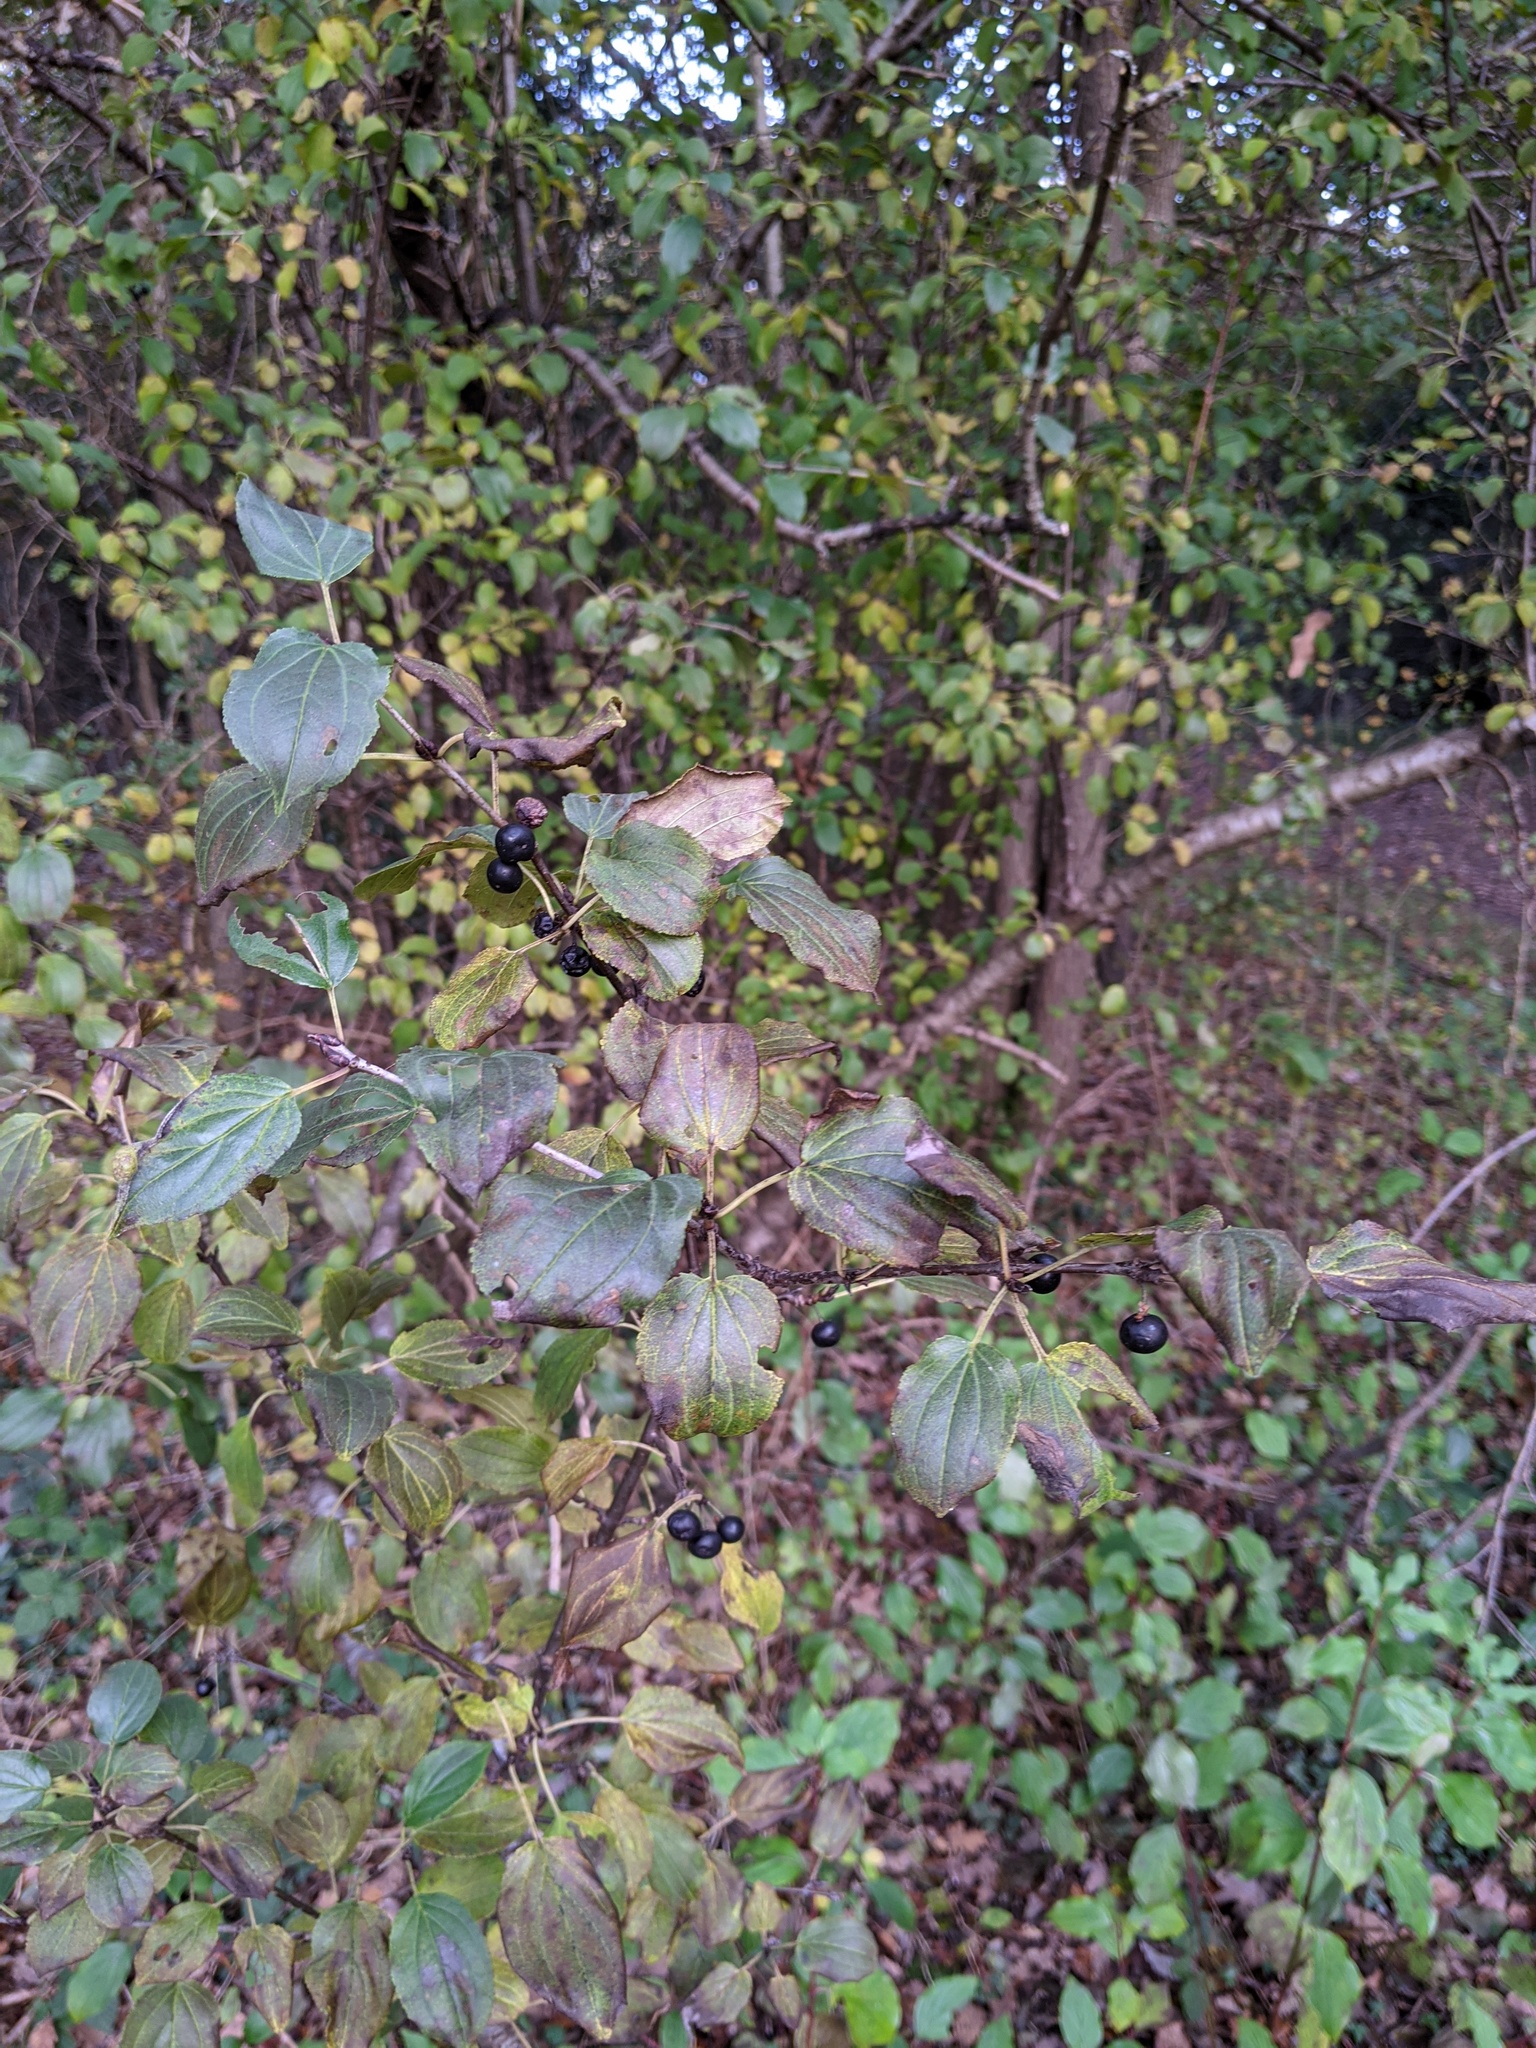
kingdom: Plantae
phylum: Tracheophyta
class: Magnoliopsida
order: Rosales
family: Rhamnaceae
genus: Rhamnus
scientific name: Rhamnus cathartica
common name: Common buckthorn
